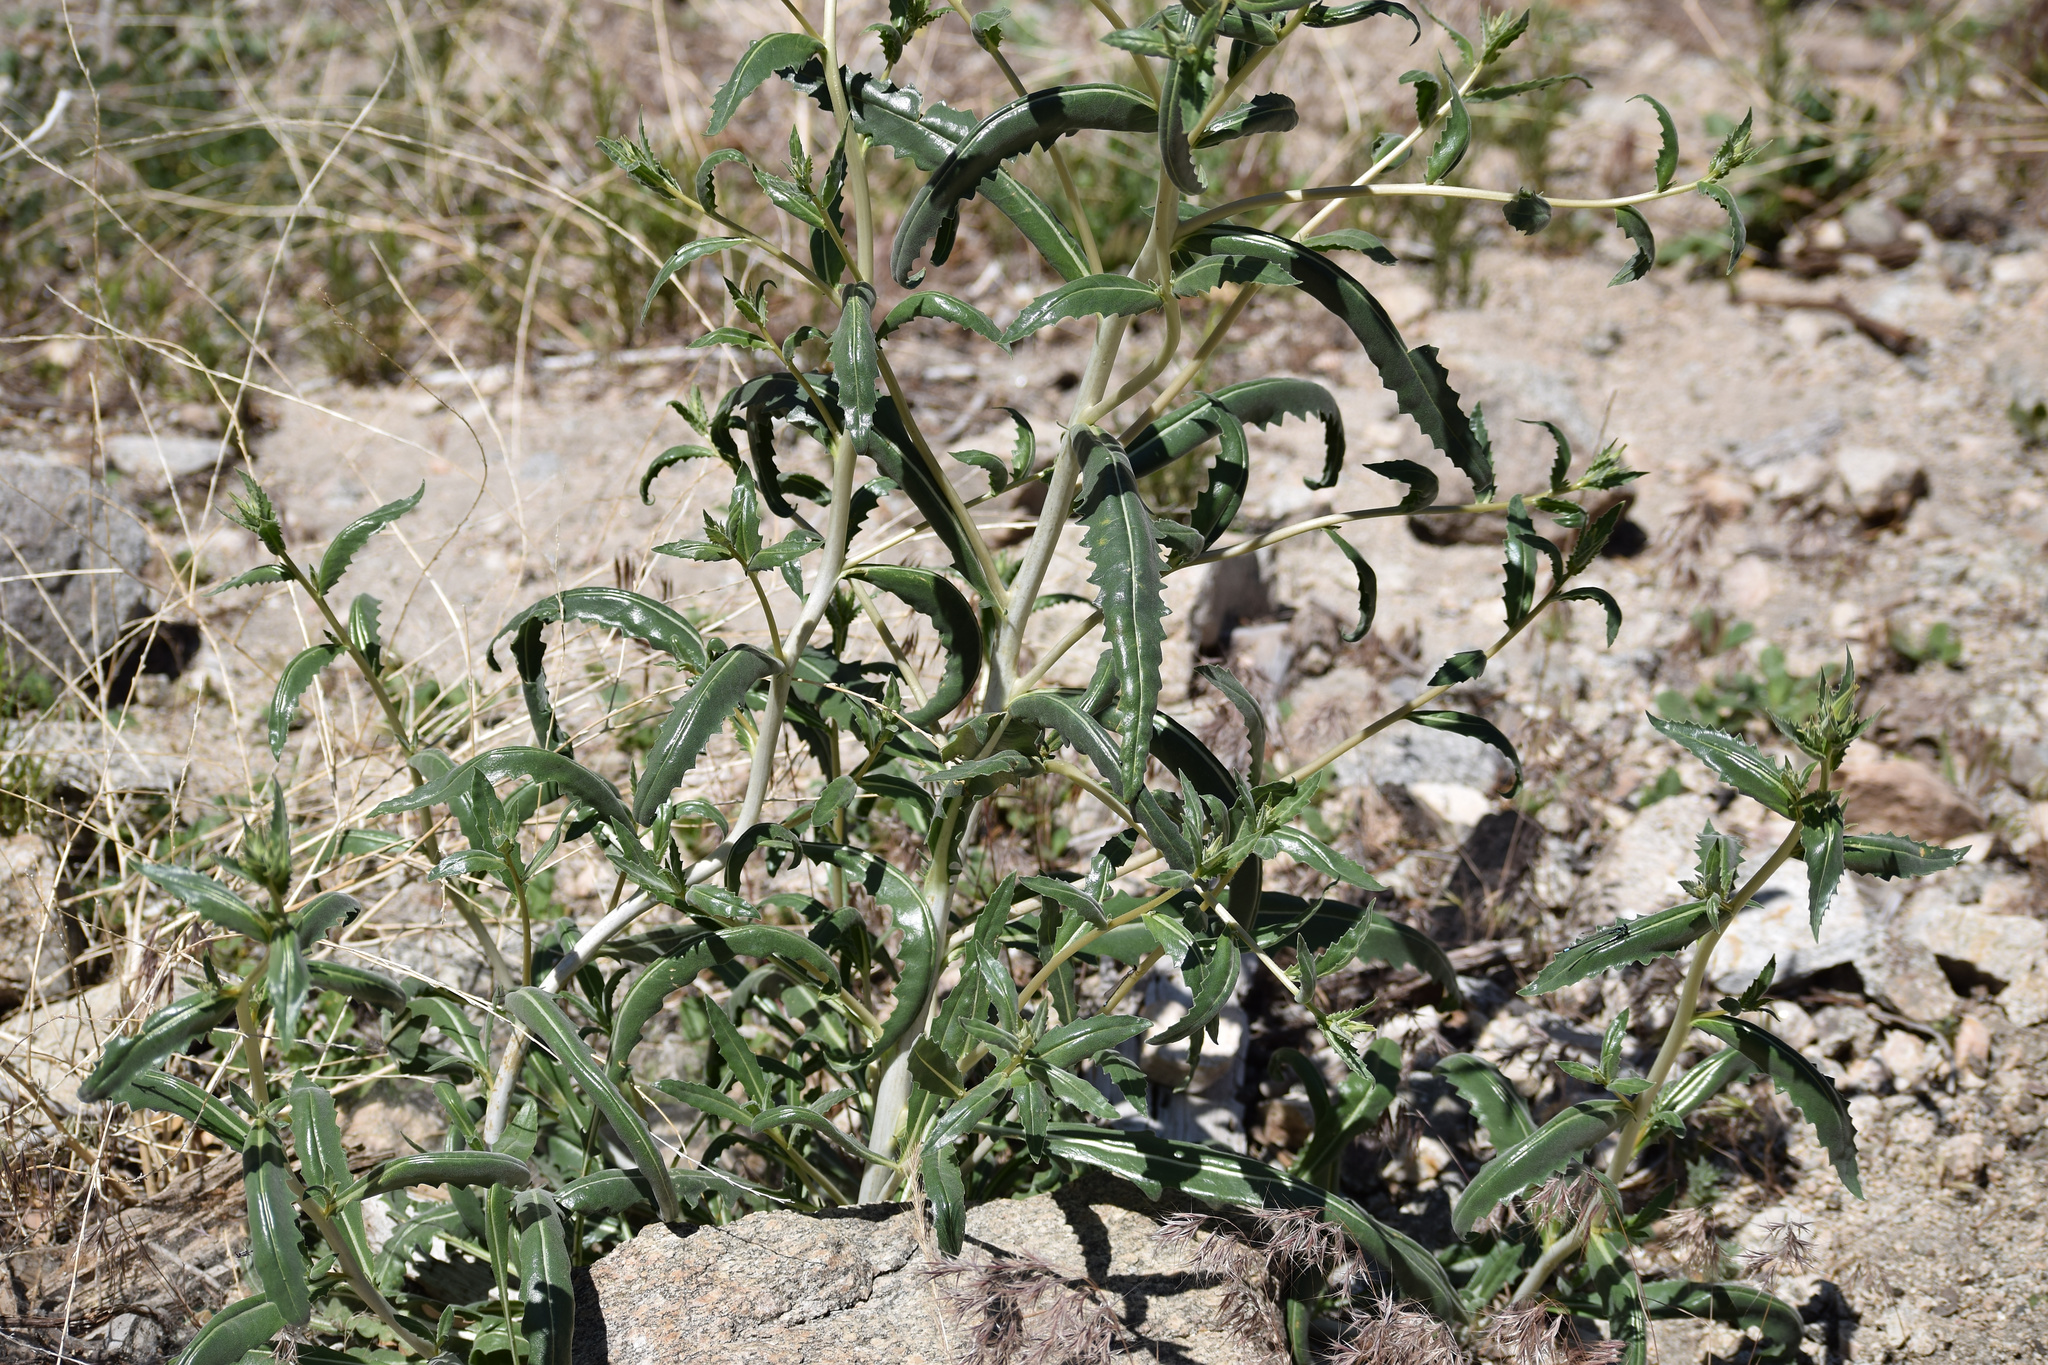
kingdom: Plantae
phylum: Tracheophyta
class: Magnoliopsida
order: Cornales
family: Loasaceae
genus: Mentzelia
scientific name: Mentzelia laevicaulis
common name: Smooth-stem blazingstar
